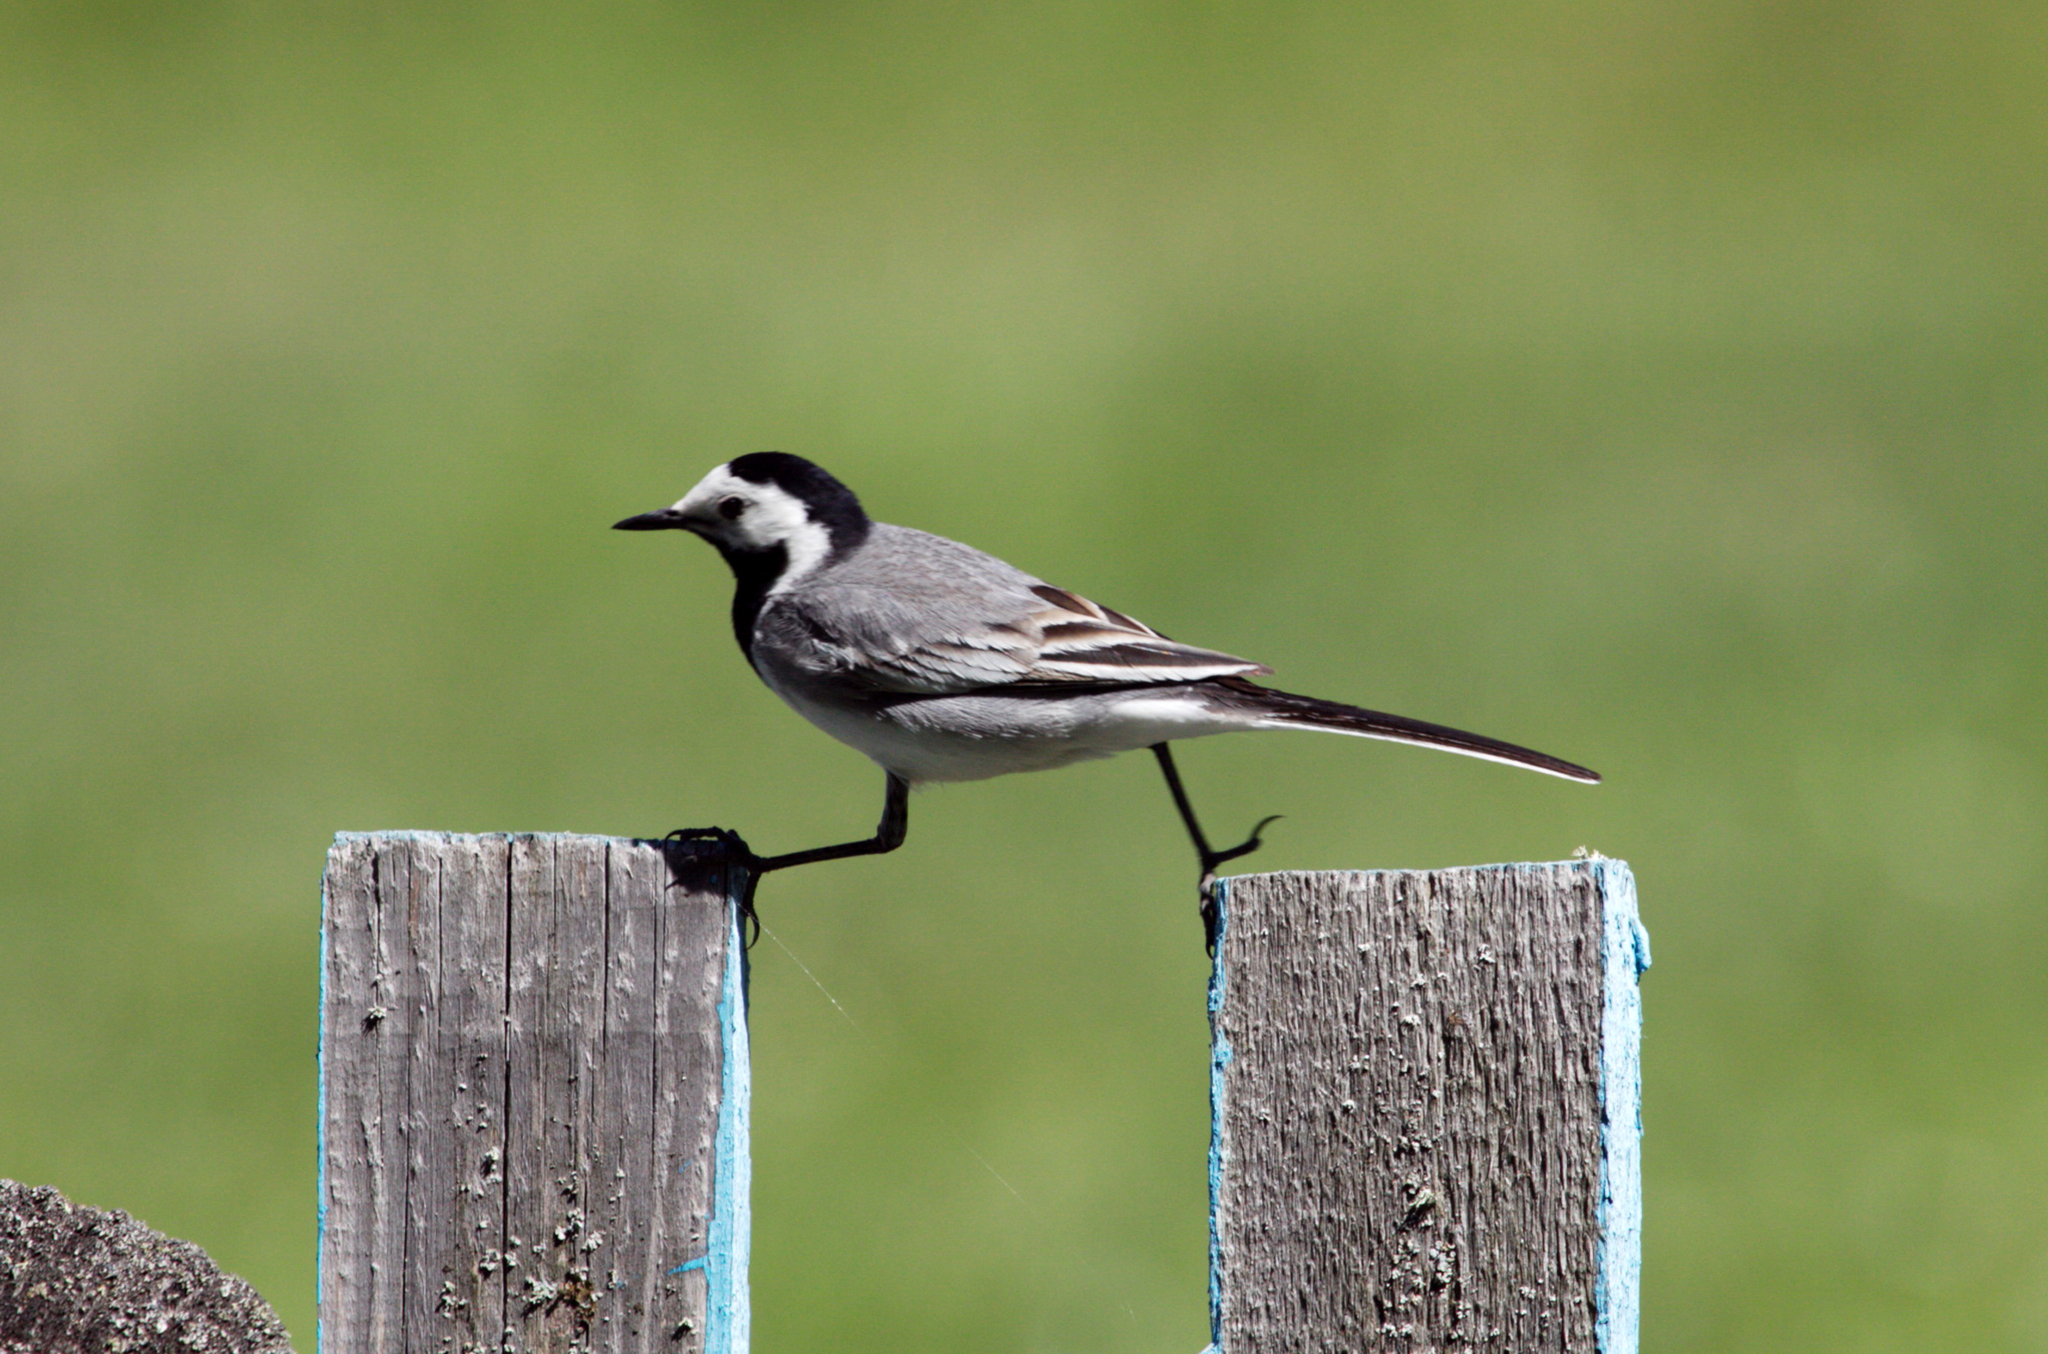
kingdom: Animalia
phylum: Chordata
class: Aves
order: Passeriformes
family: Motacillidae
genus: Motacilla
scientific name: Motacilla alba
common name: White wagtail
